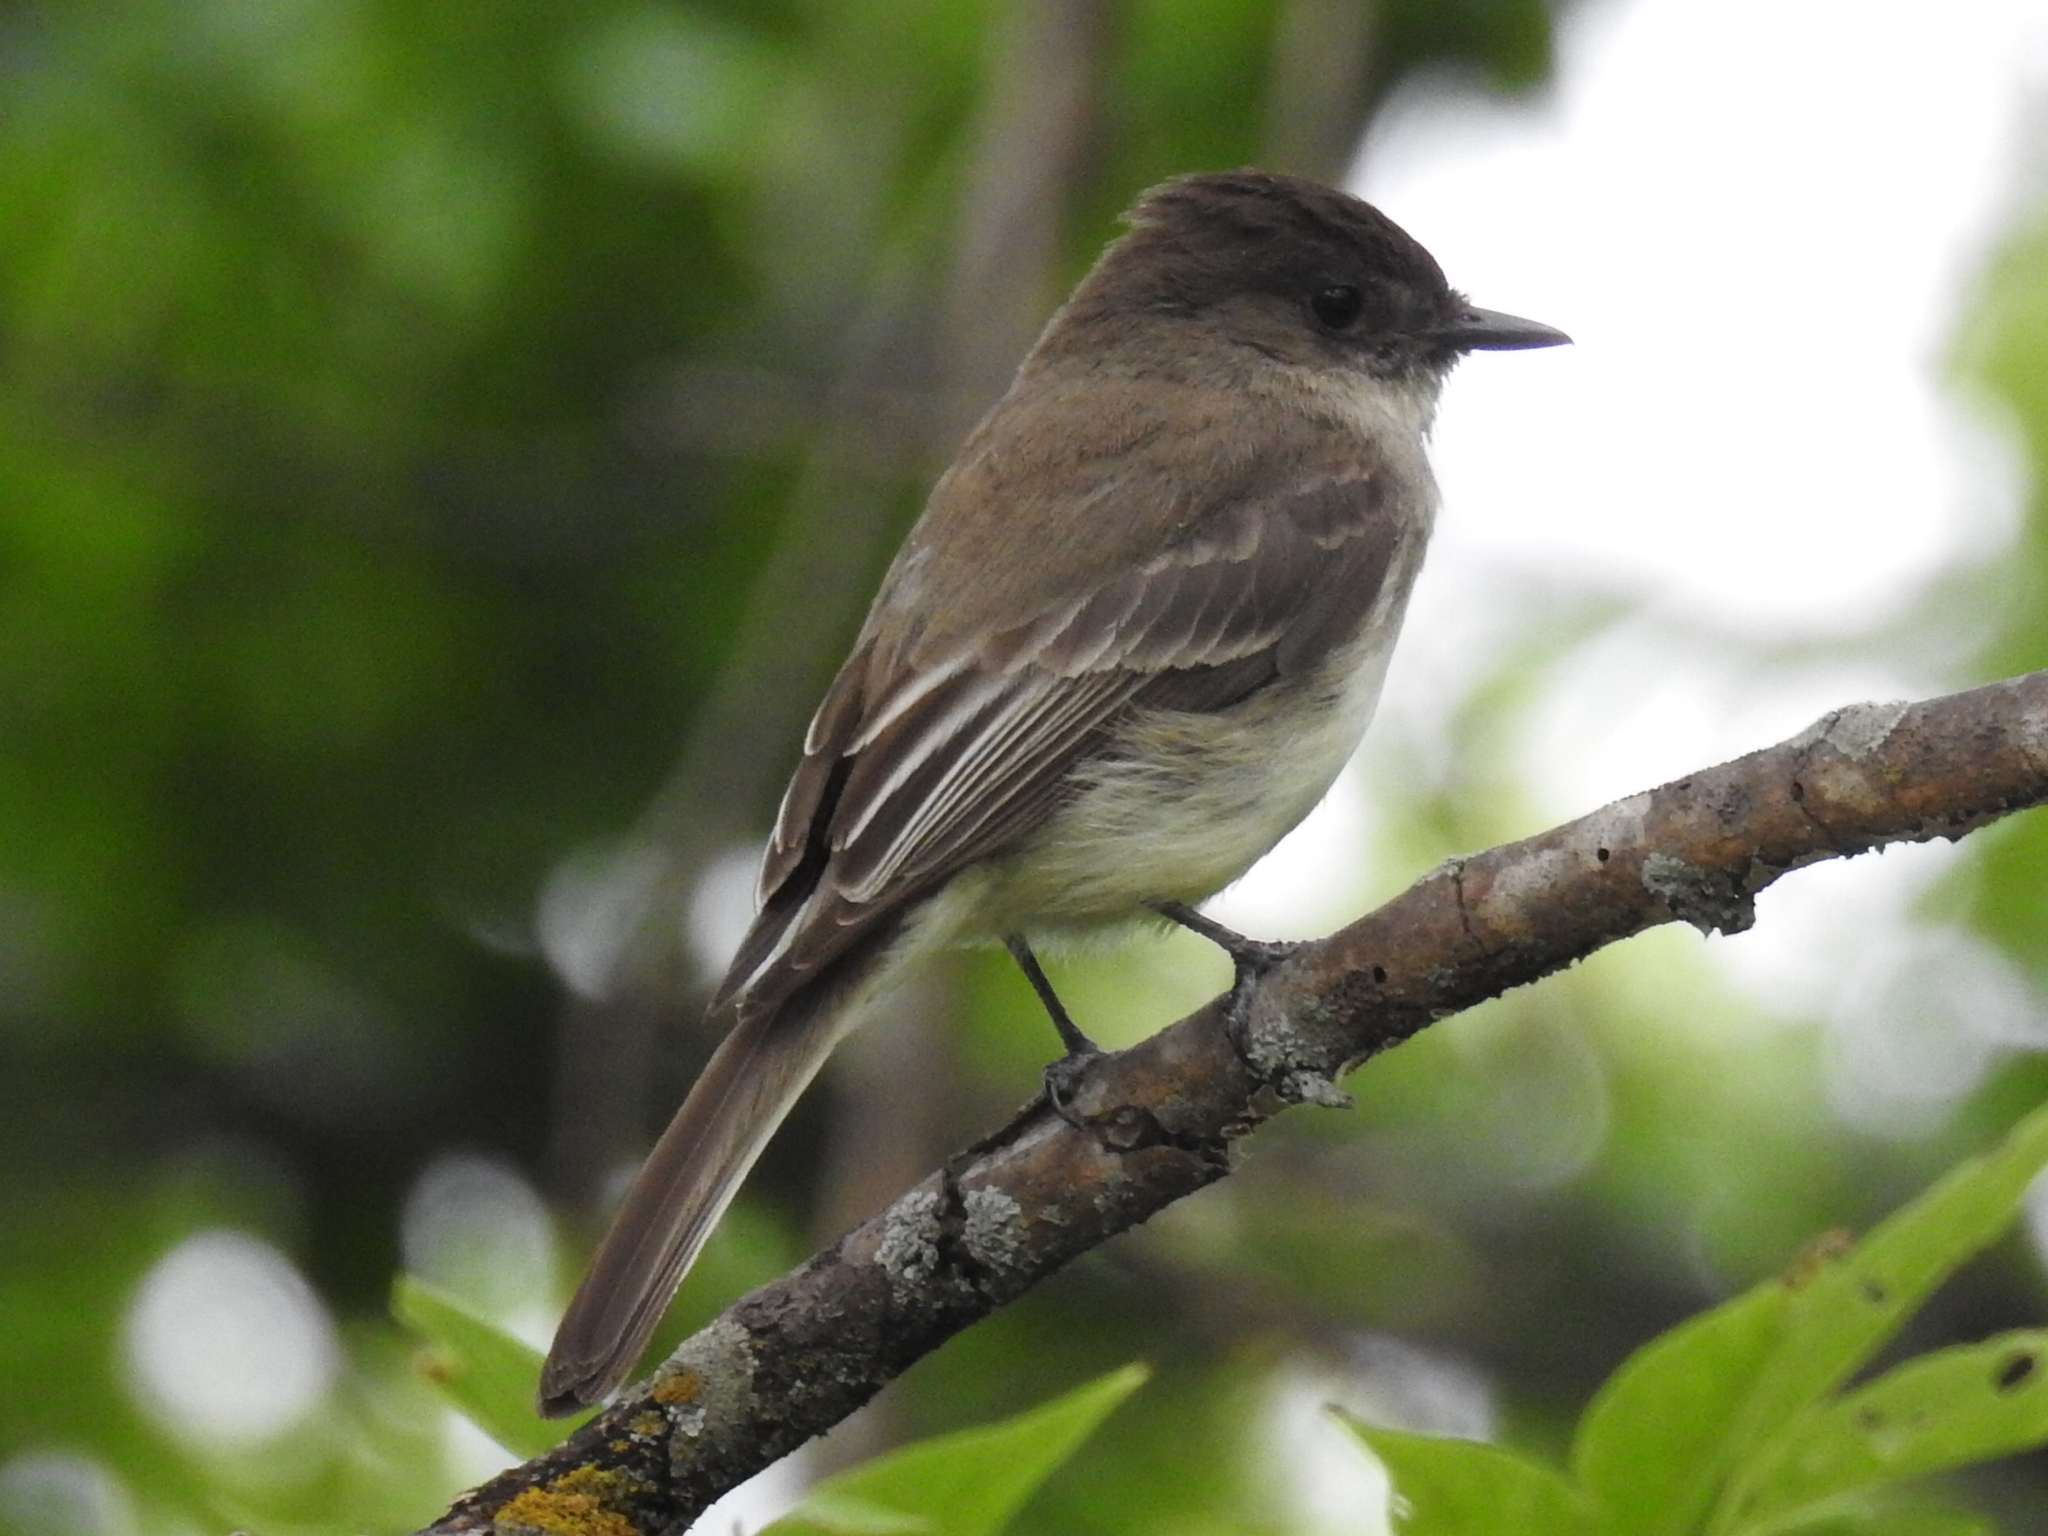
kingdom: Animalia
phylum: Chordata
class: Aves
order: Passeriformes
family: Tyrannidae
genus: Sayornis
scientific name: Sayornis phoebe
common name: Eastern phoebe
